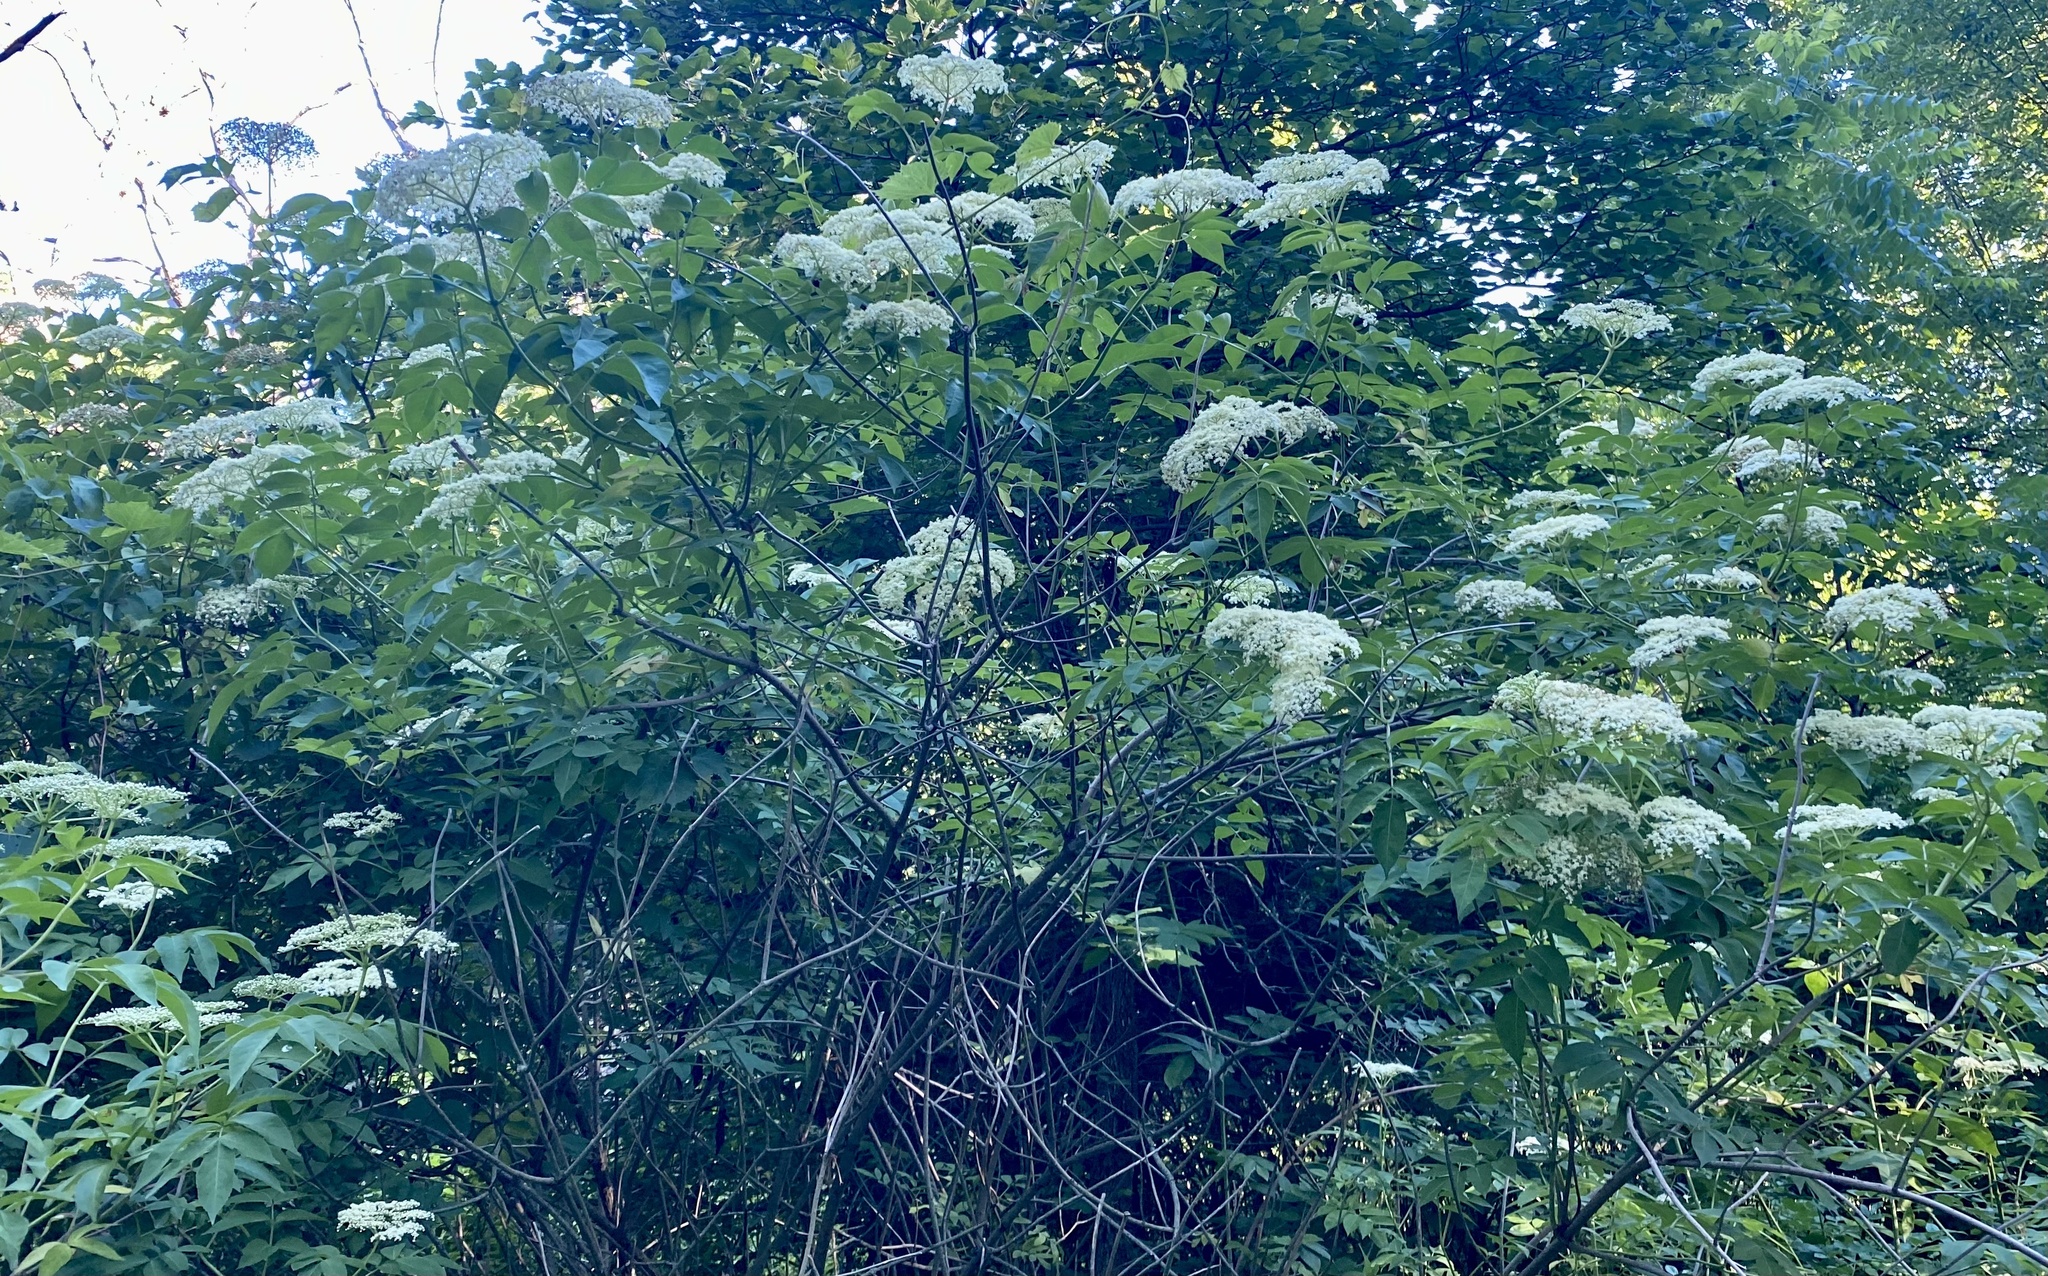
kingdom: Plantae
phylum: Tracheophyta
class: Magnoliopsida
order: Dipsacales
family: Viburnaceae
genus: Sambucus
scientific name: Sambucus canadensis
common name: American elder
